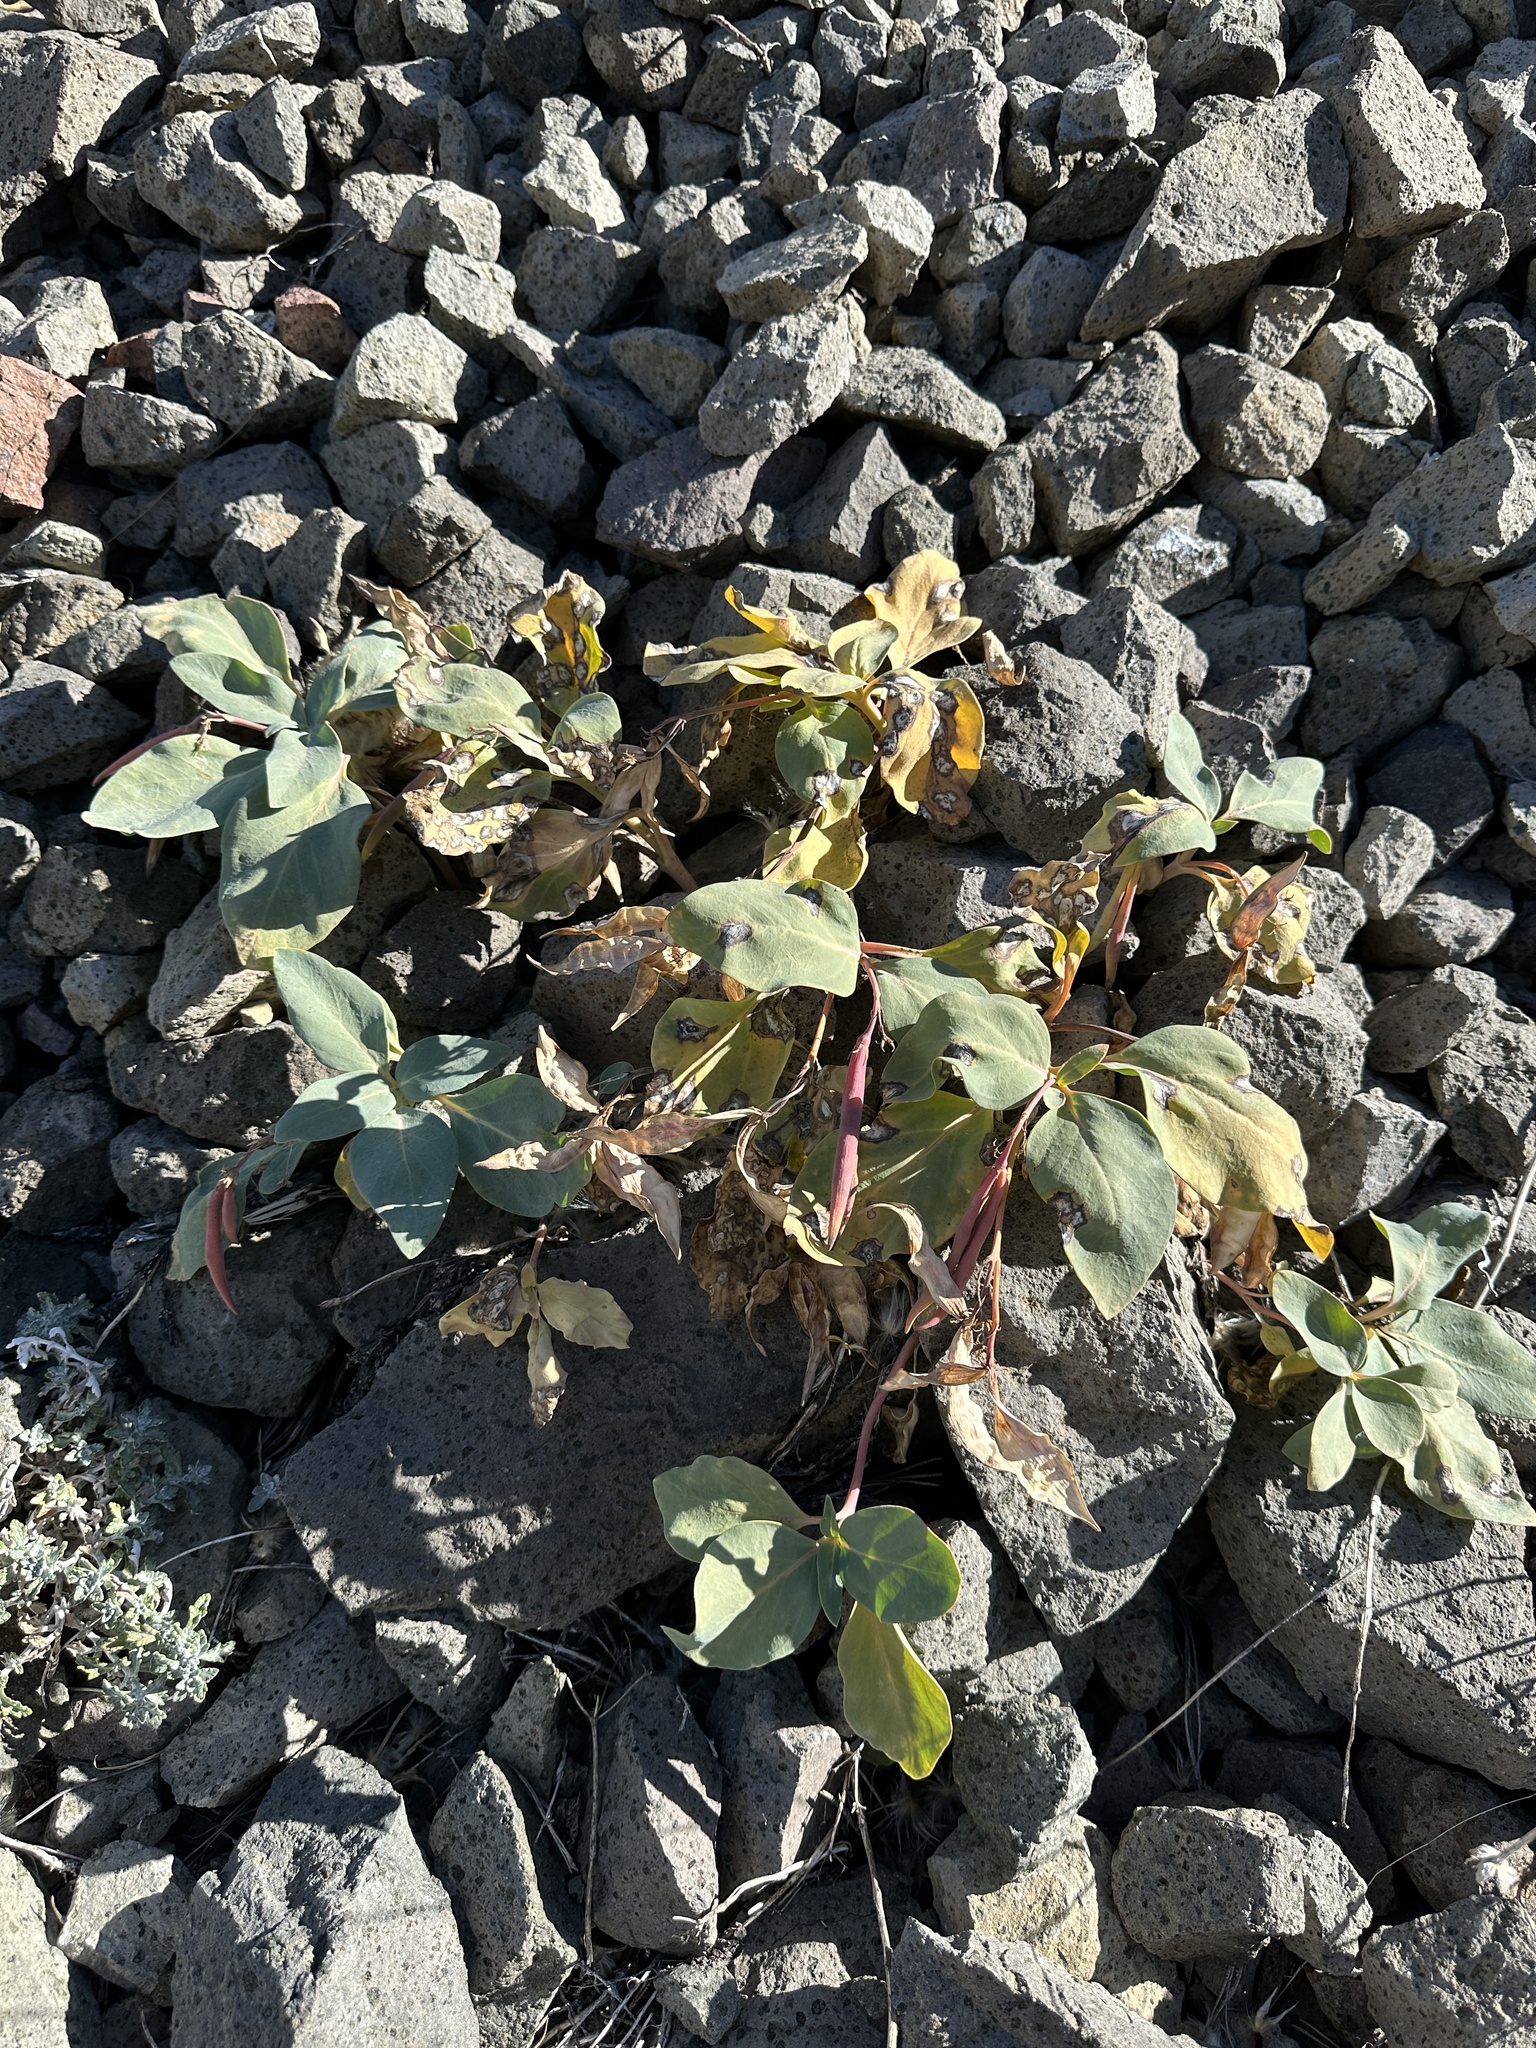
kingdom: Plantae
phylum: Tracheophyta
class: Magnoliopsida
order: Gentianales
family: Apocynaceae
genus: Cycladenia
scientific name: Cycladenia humilis
